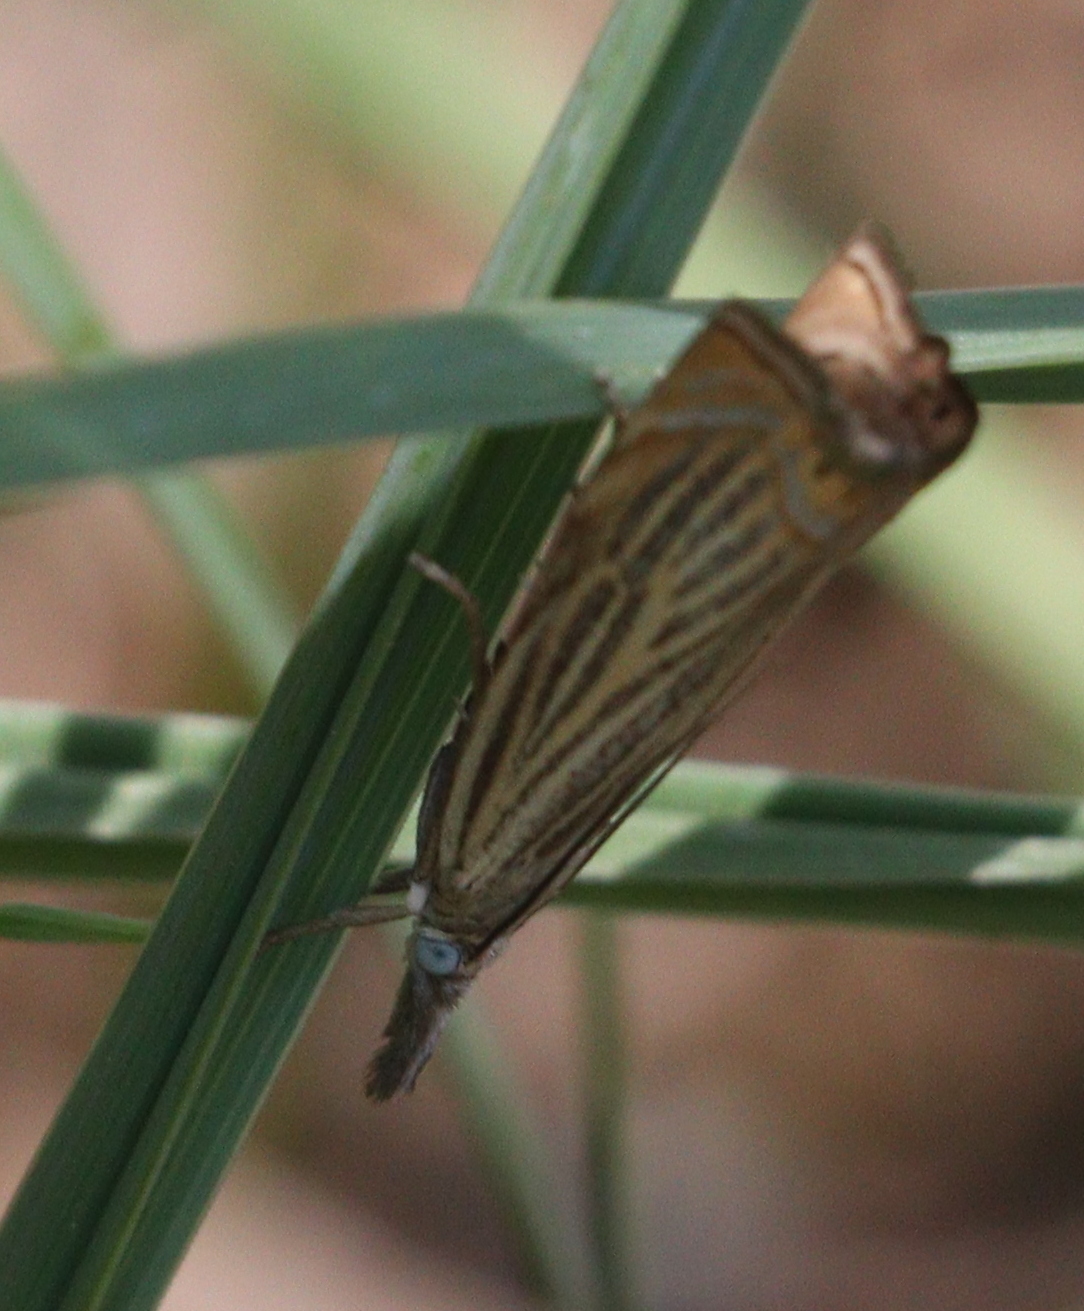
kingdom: Animalia
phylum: Arthropoda
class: Insecta
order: Lepidoptera
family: Crambidae
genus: Chrysoteuchia
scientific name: Chrysoteuchia culmella
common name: Garden grass-veneer
